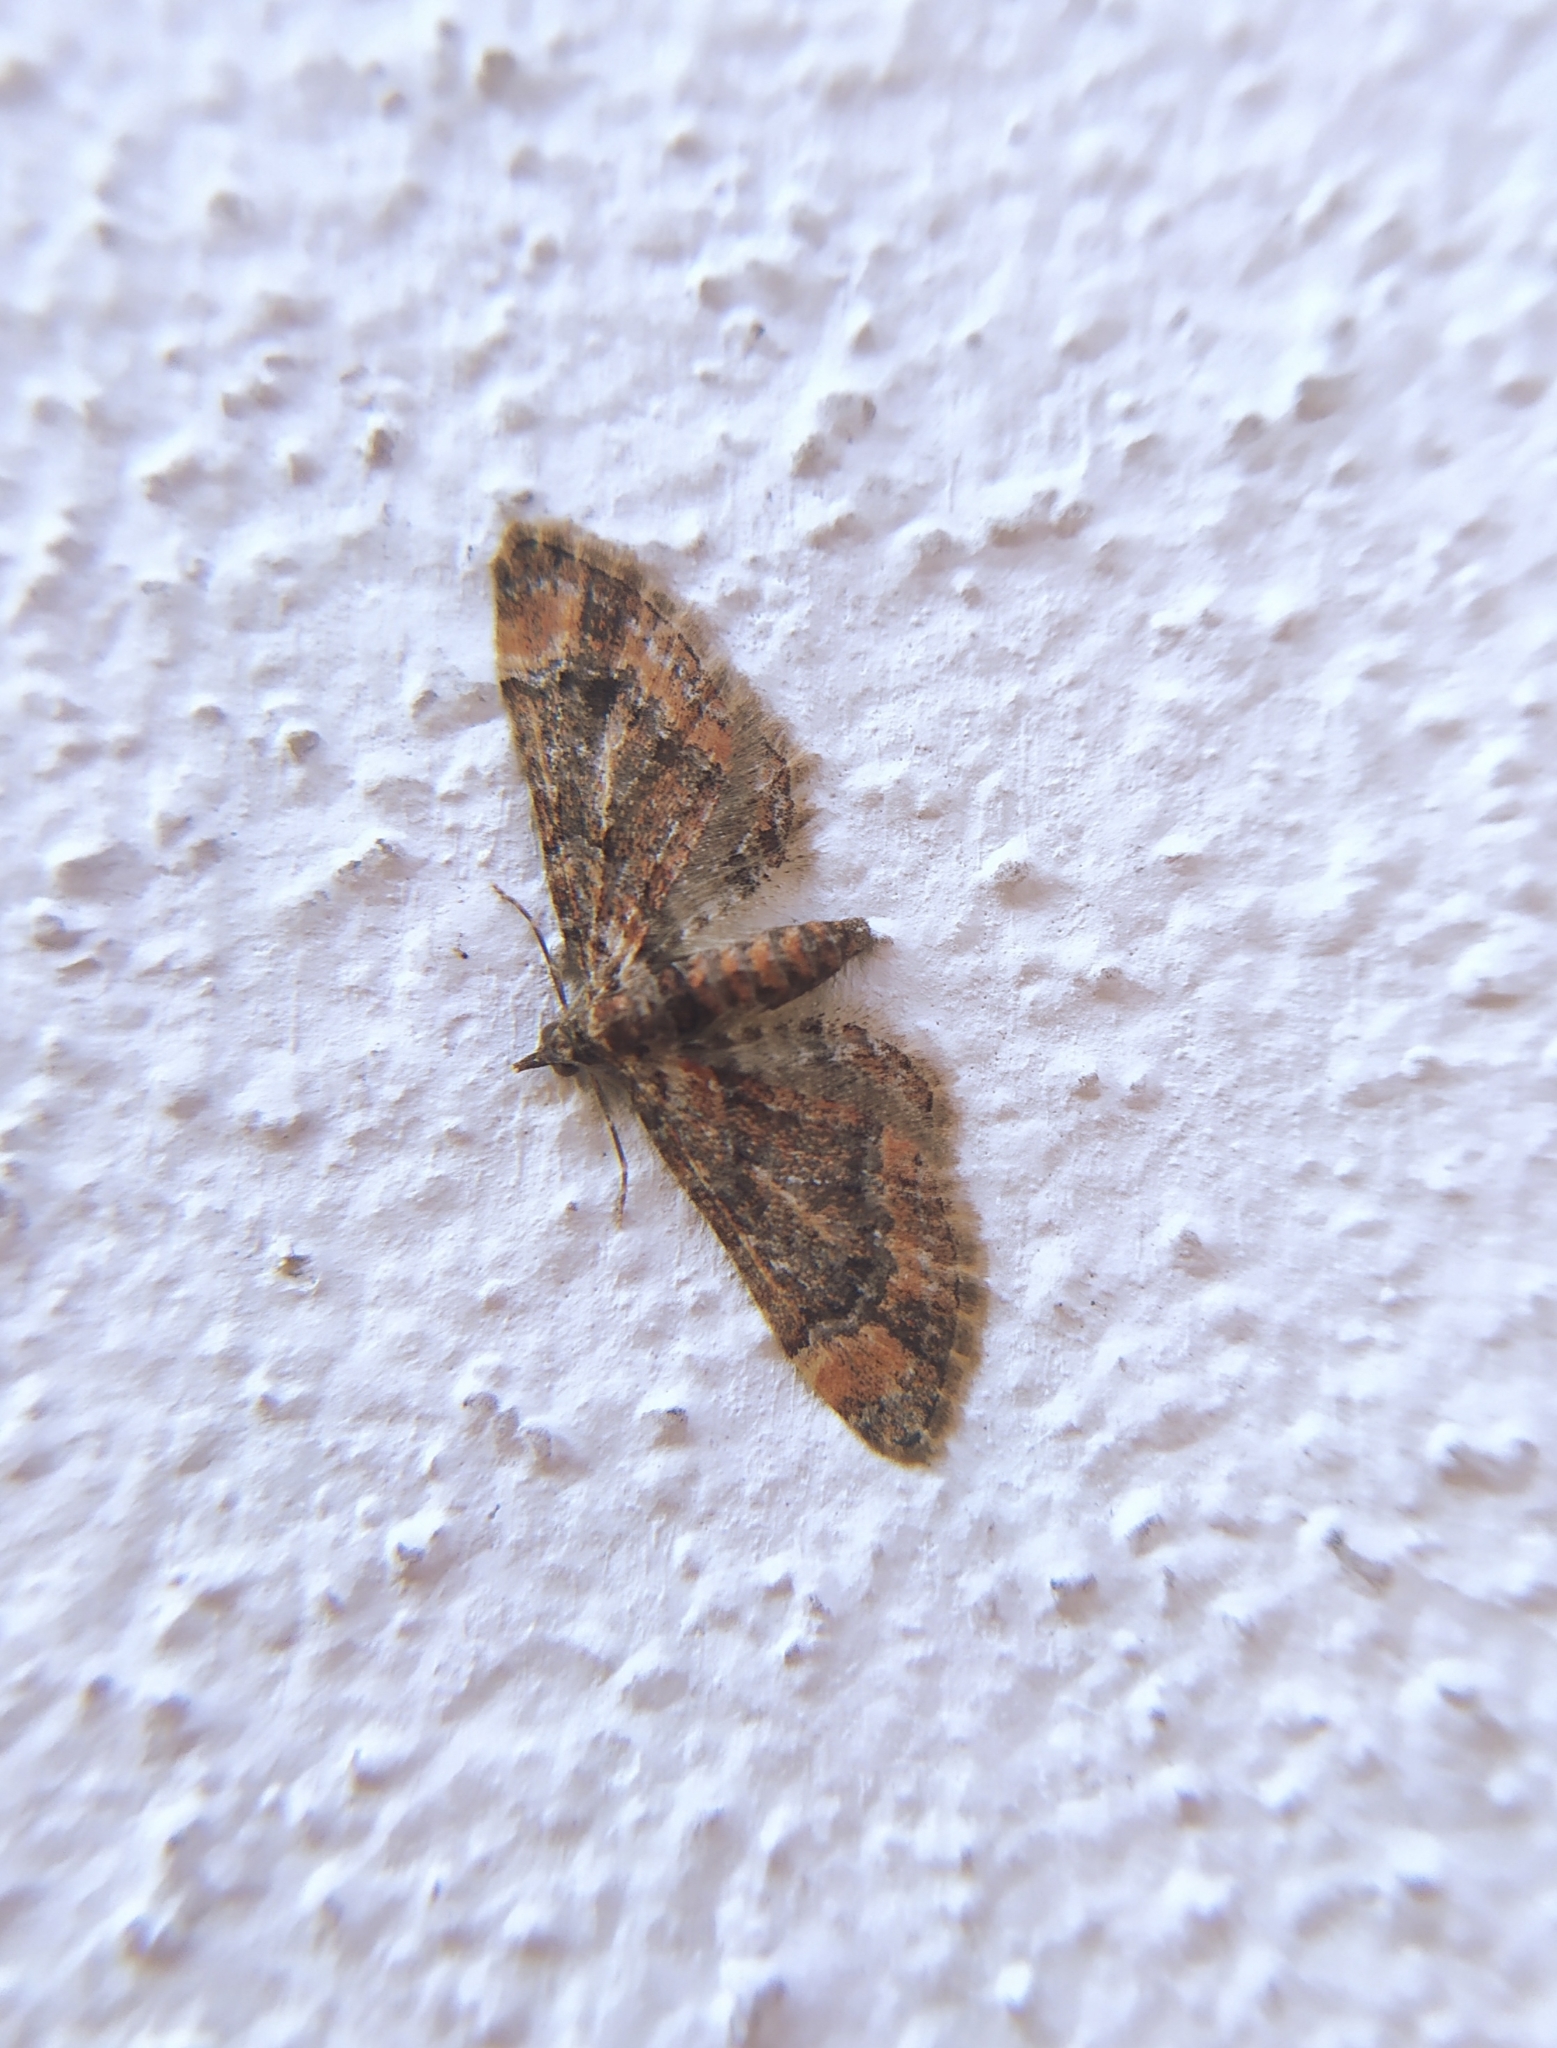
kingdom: Animalia
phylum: Arthropoda
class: Insecta
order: Lepidoptera
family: Geometridae
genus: Gymnoscelis
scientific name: Gymnoscelis rufifasciata
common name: Double-striped pug
